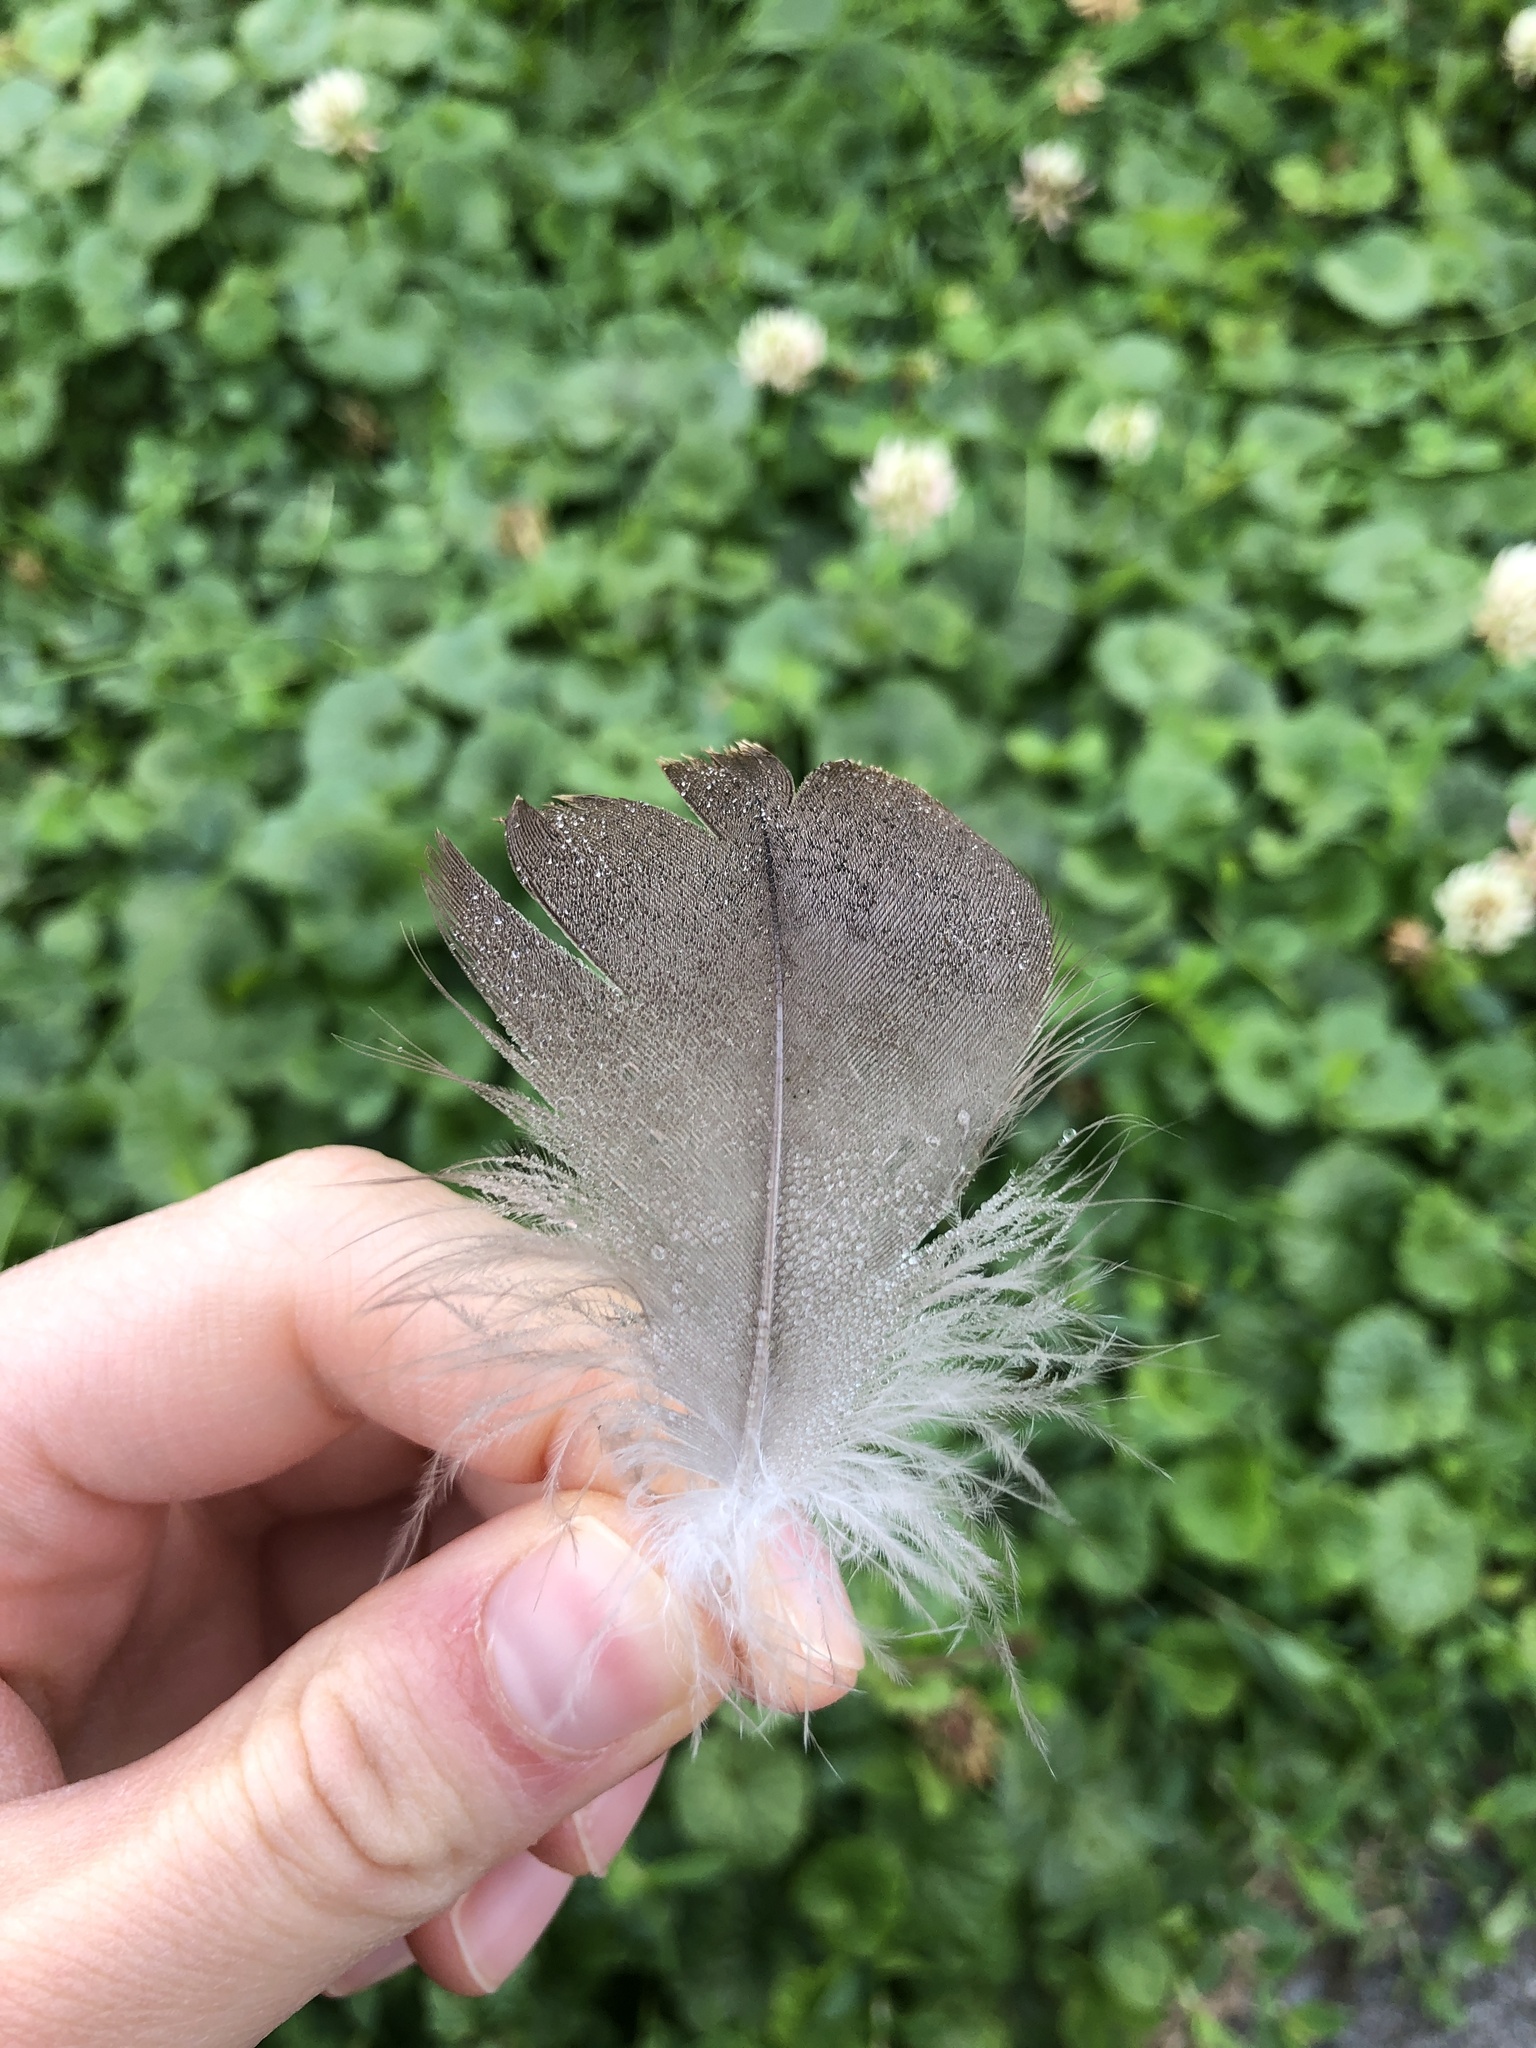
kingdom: Animalia
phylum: Chordata
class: Aves
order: Anseriformes
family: Anatidae
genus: Branta
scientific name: Branta canadensis
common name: Canada goose
